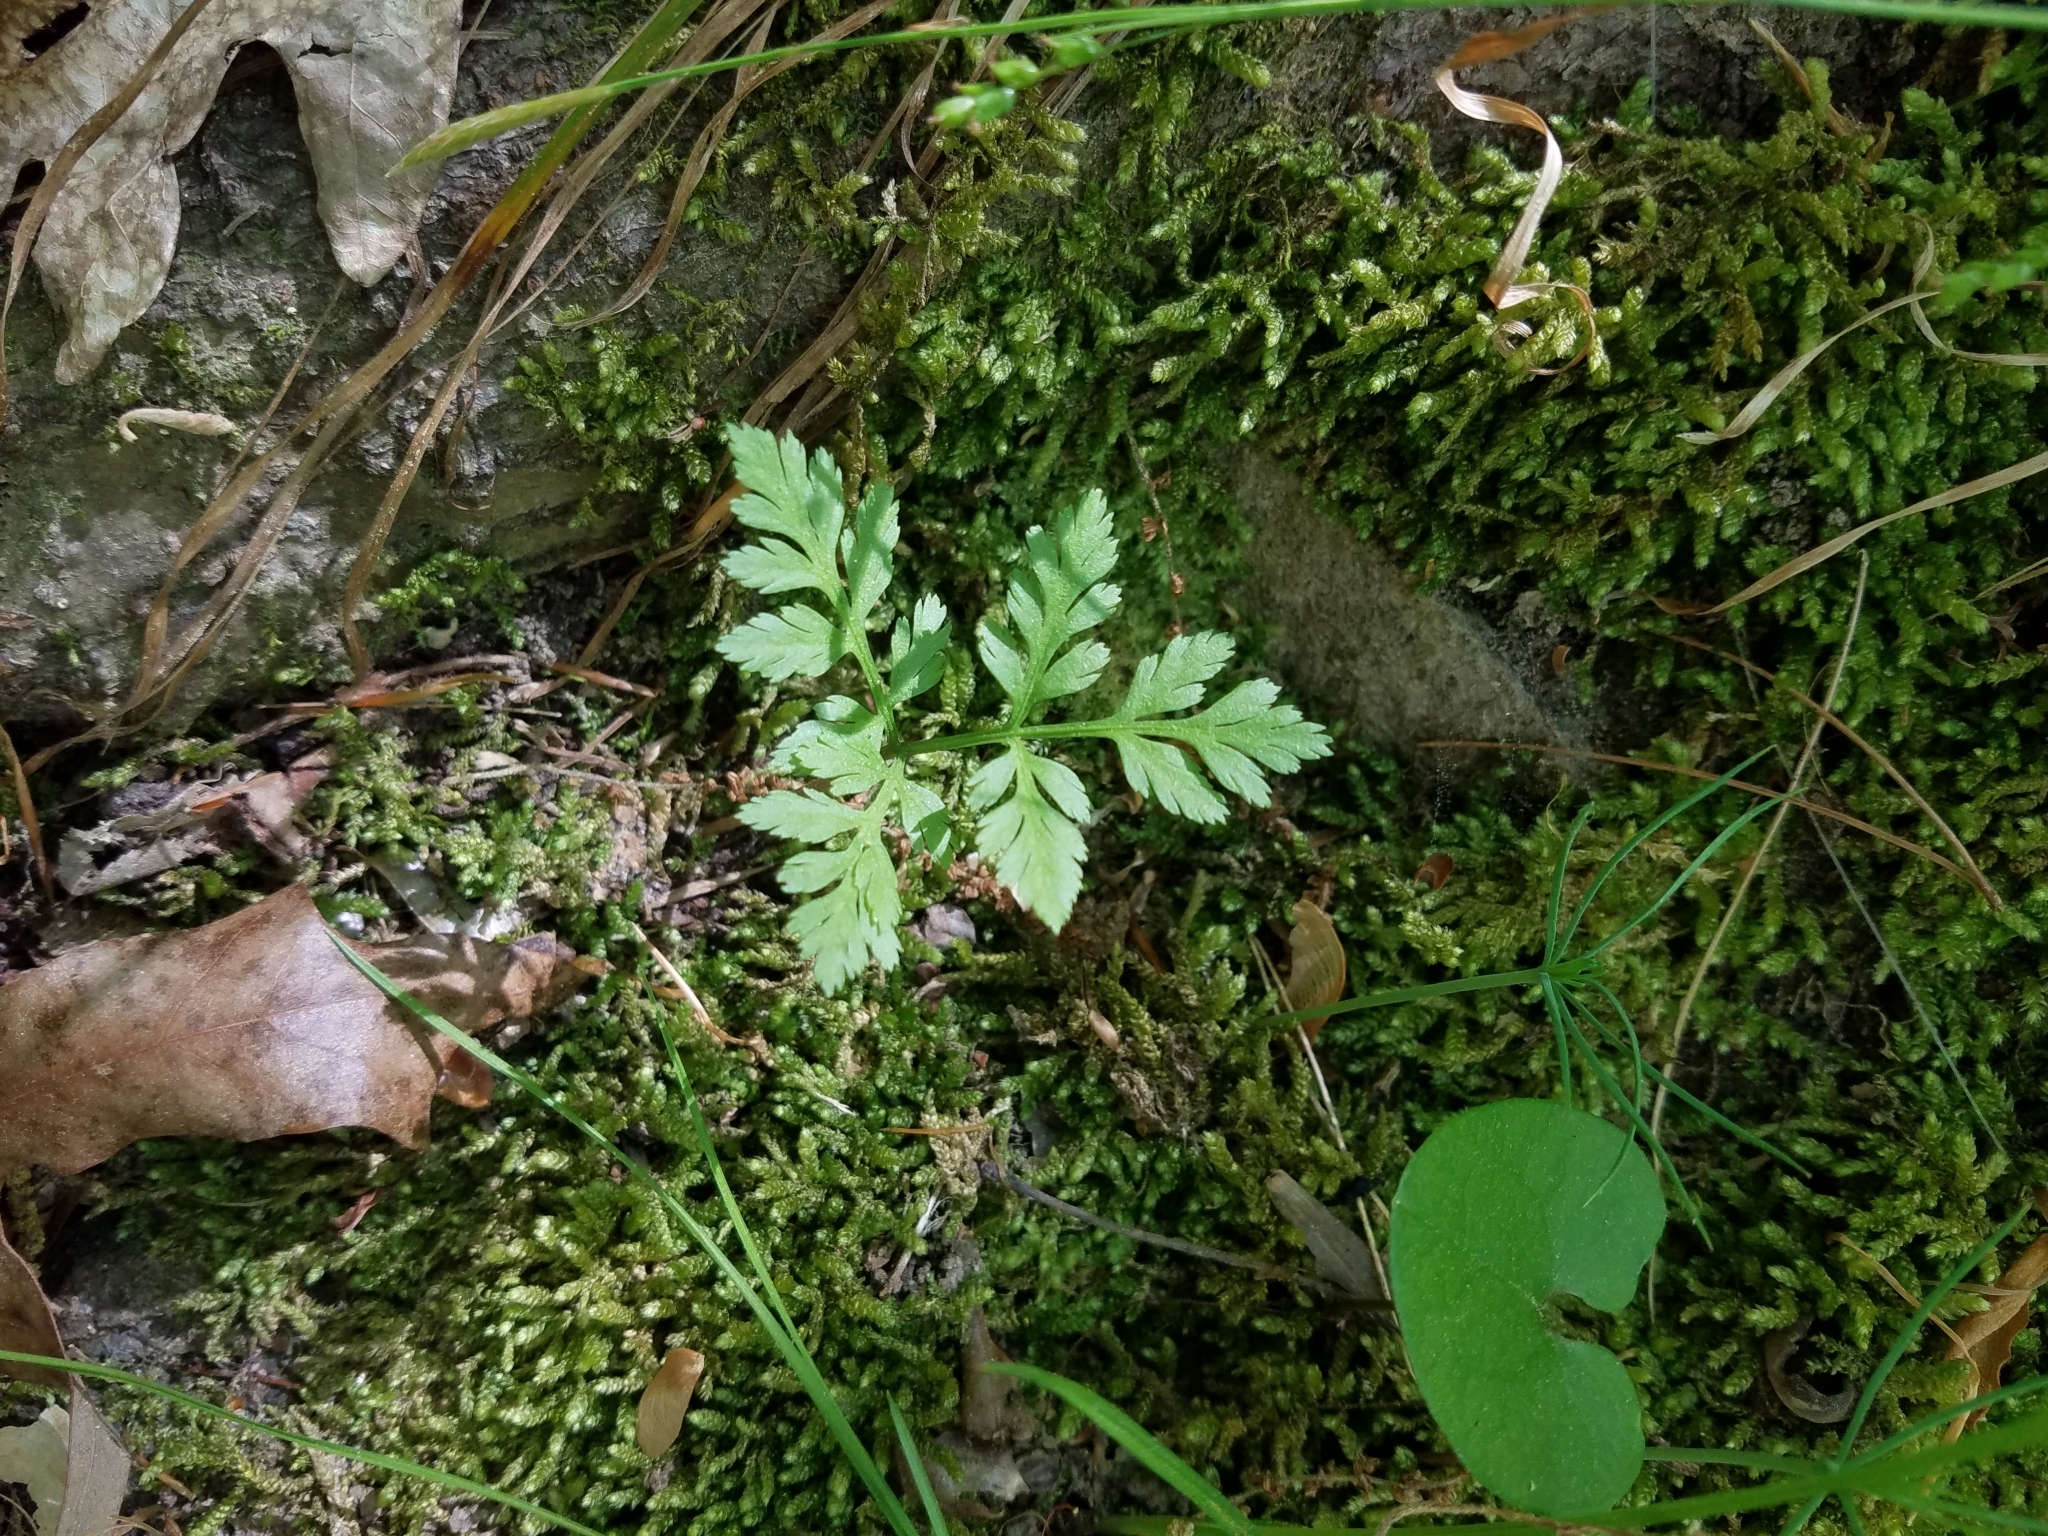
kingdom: Plantae
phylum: Tracheophyta
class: Polypodiopsida
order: Ophioglossales
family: Ophioglossaceae
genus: Botrypus
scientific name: Botrypus virginianus
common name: Common grapefern
